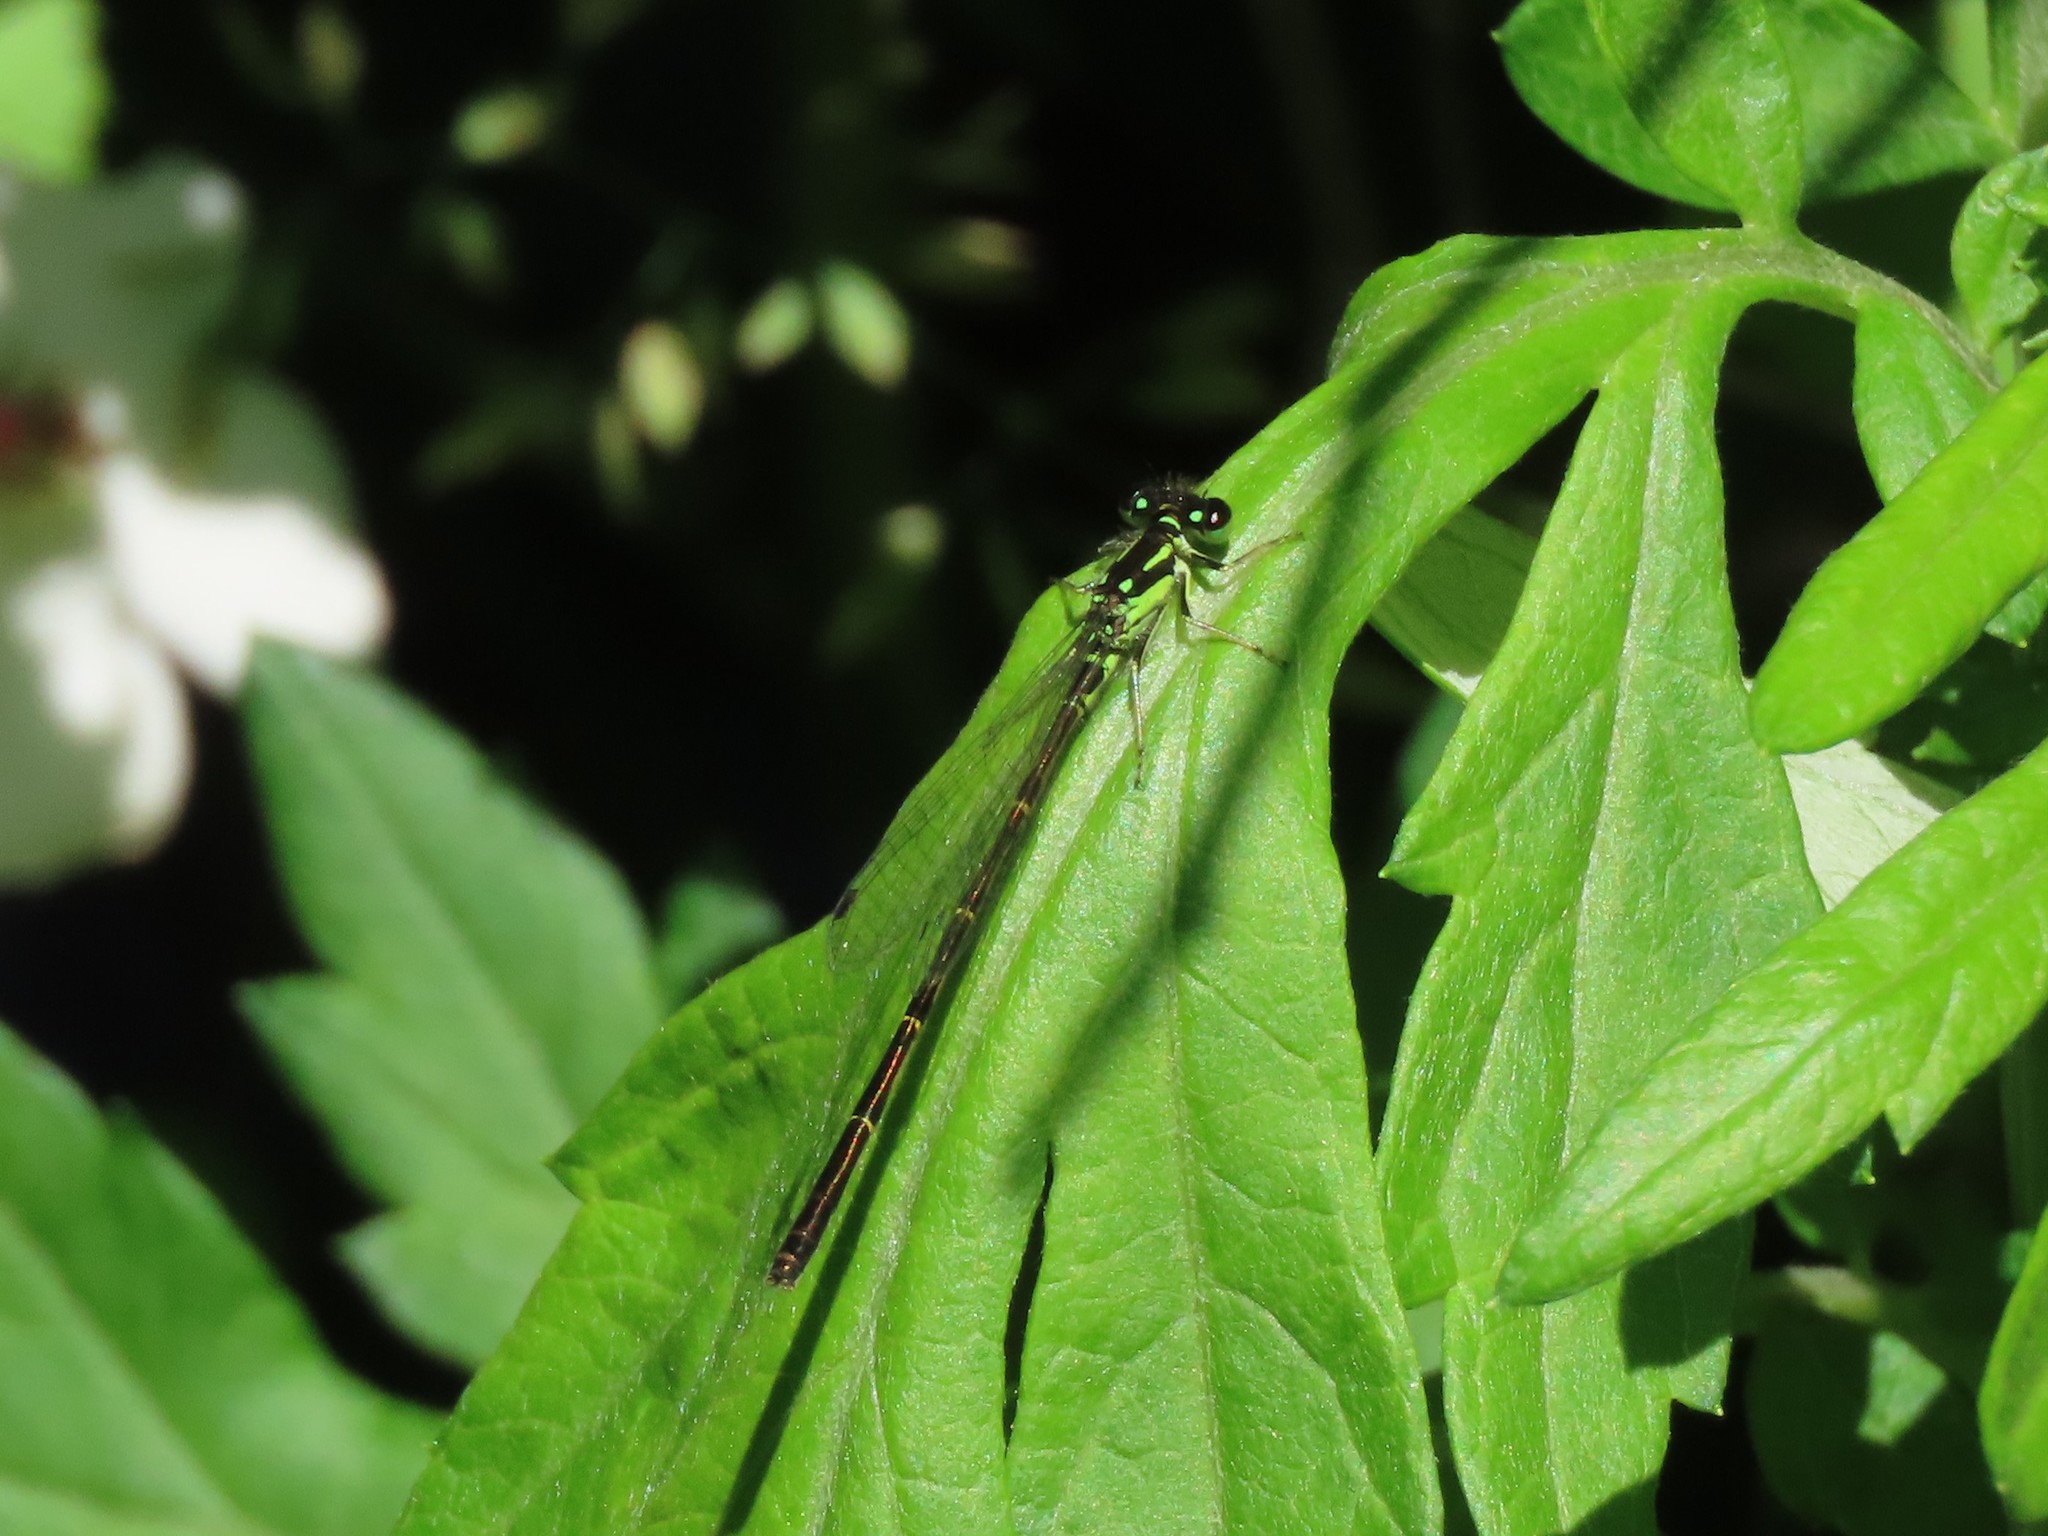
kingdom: Animalia
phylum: Arthropoda
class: Insecta
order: Odonata
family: Coenagrionidae
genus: Ischnura
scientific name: Ischnura posita
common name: Fragile forktail
